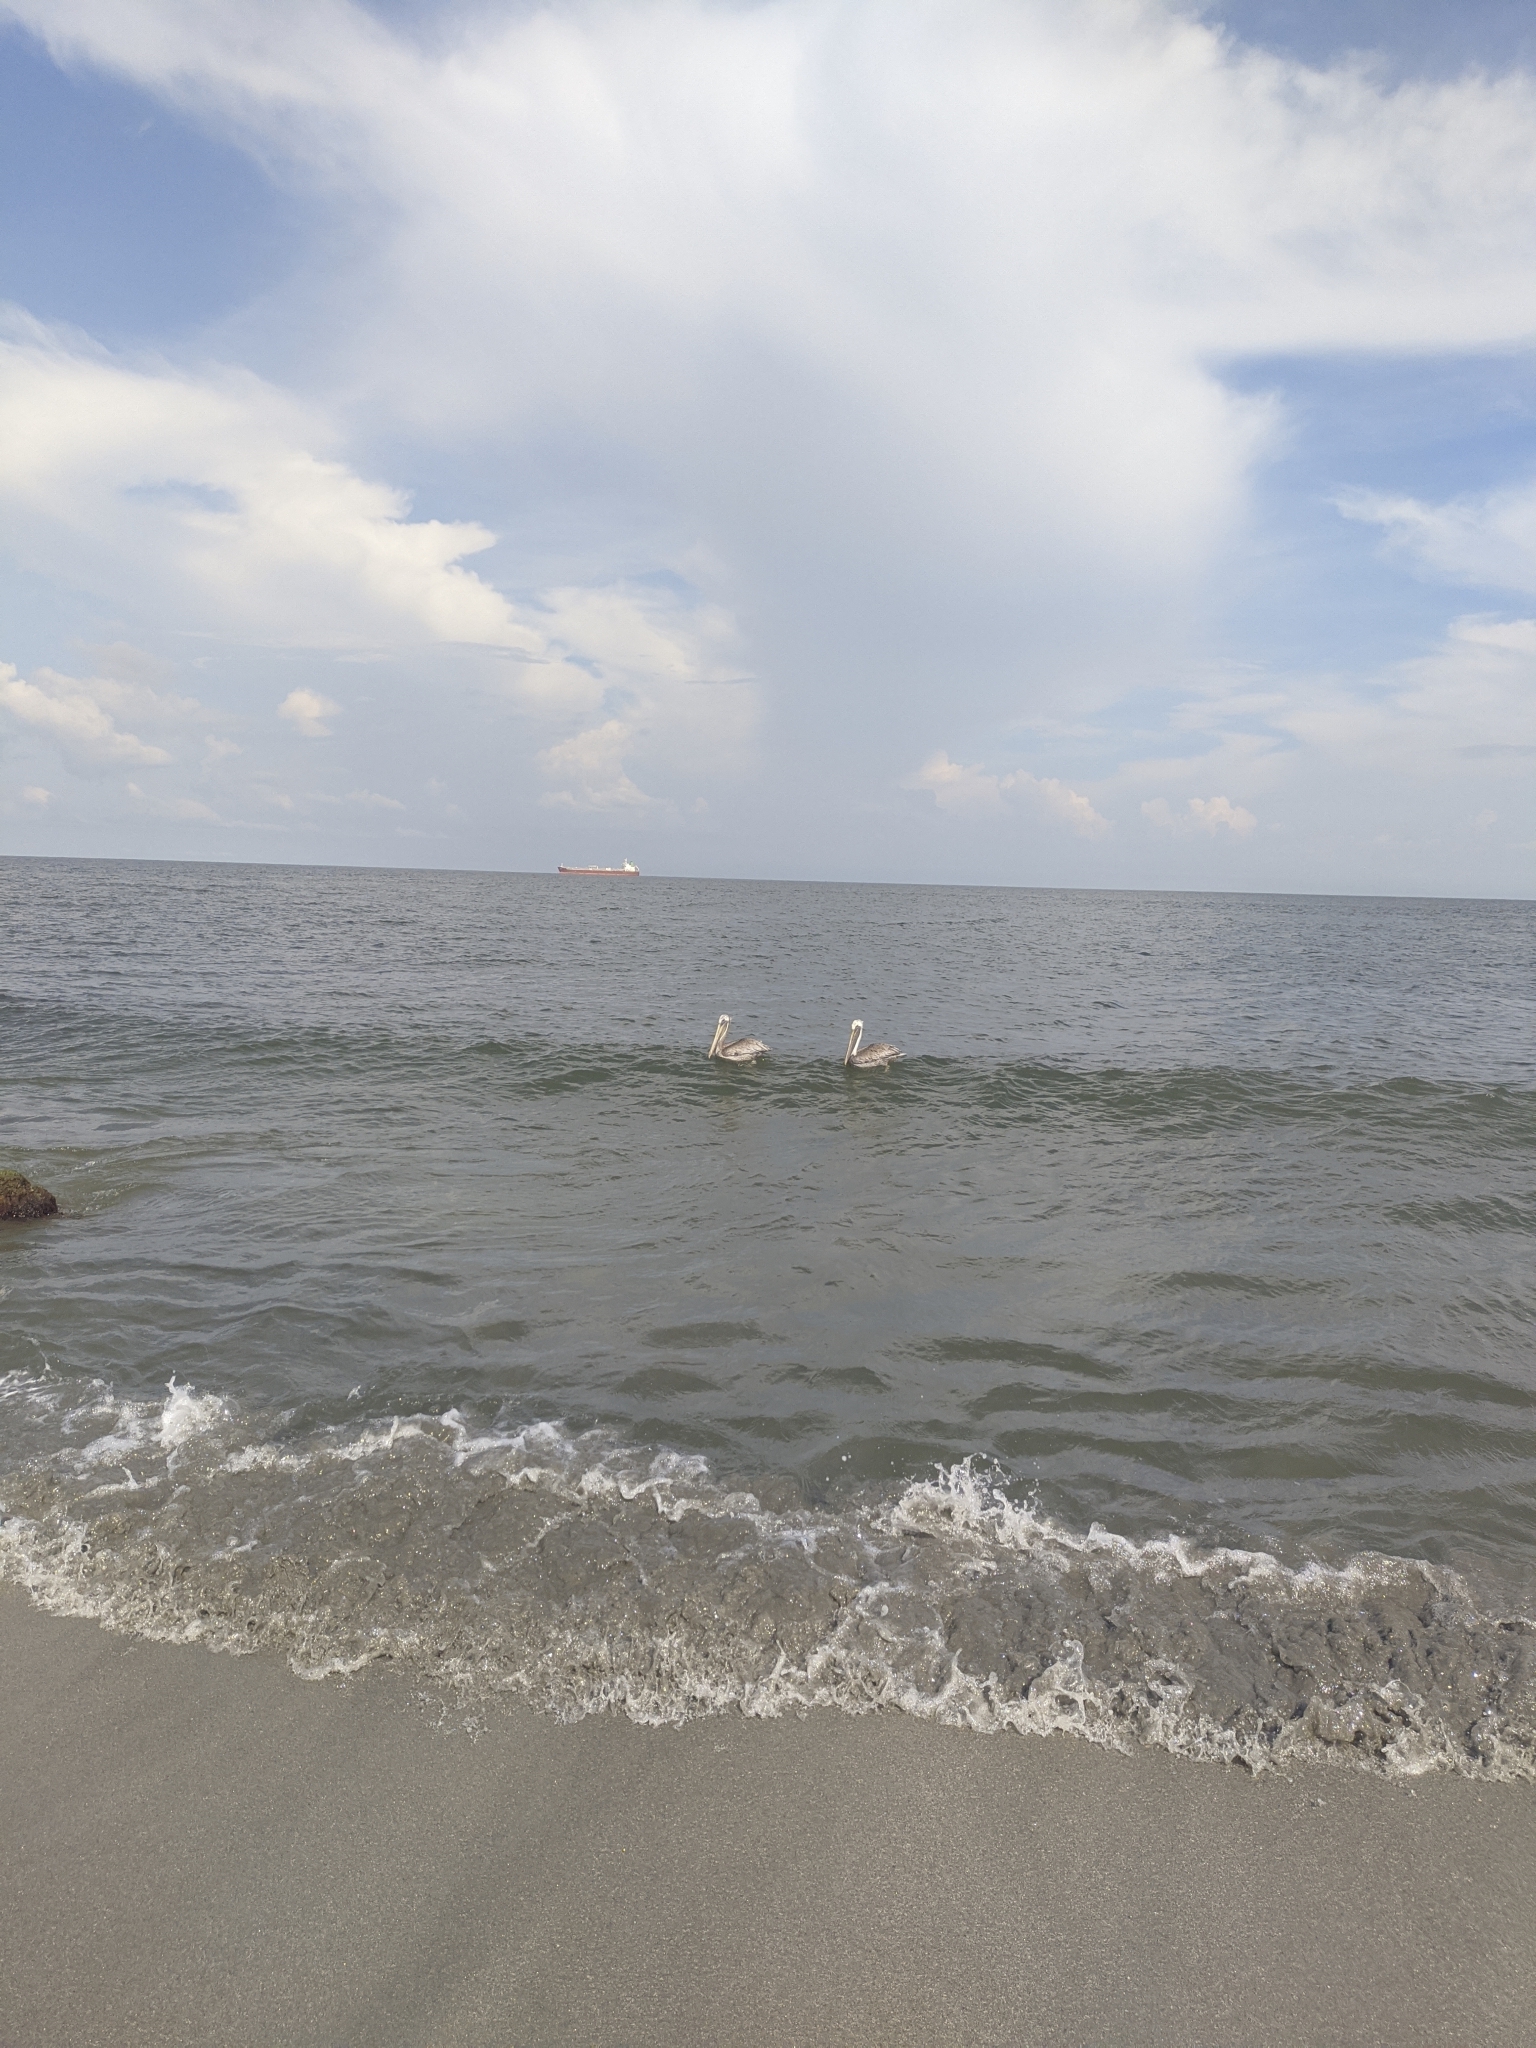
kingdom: Animalia
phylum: Chordata
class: Aves
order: Pelecaniformes
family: Pelecanidae
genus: Pelecanus
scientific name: Pelecanus occidentalis
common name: Brown pelican
